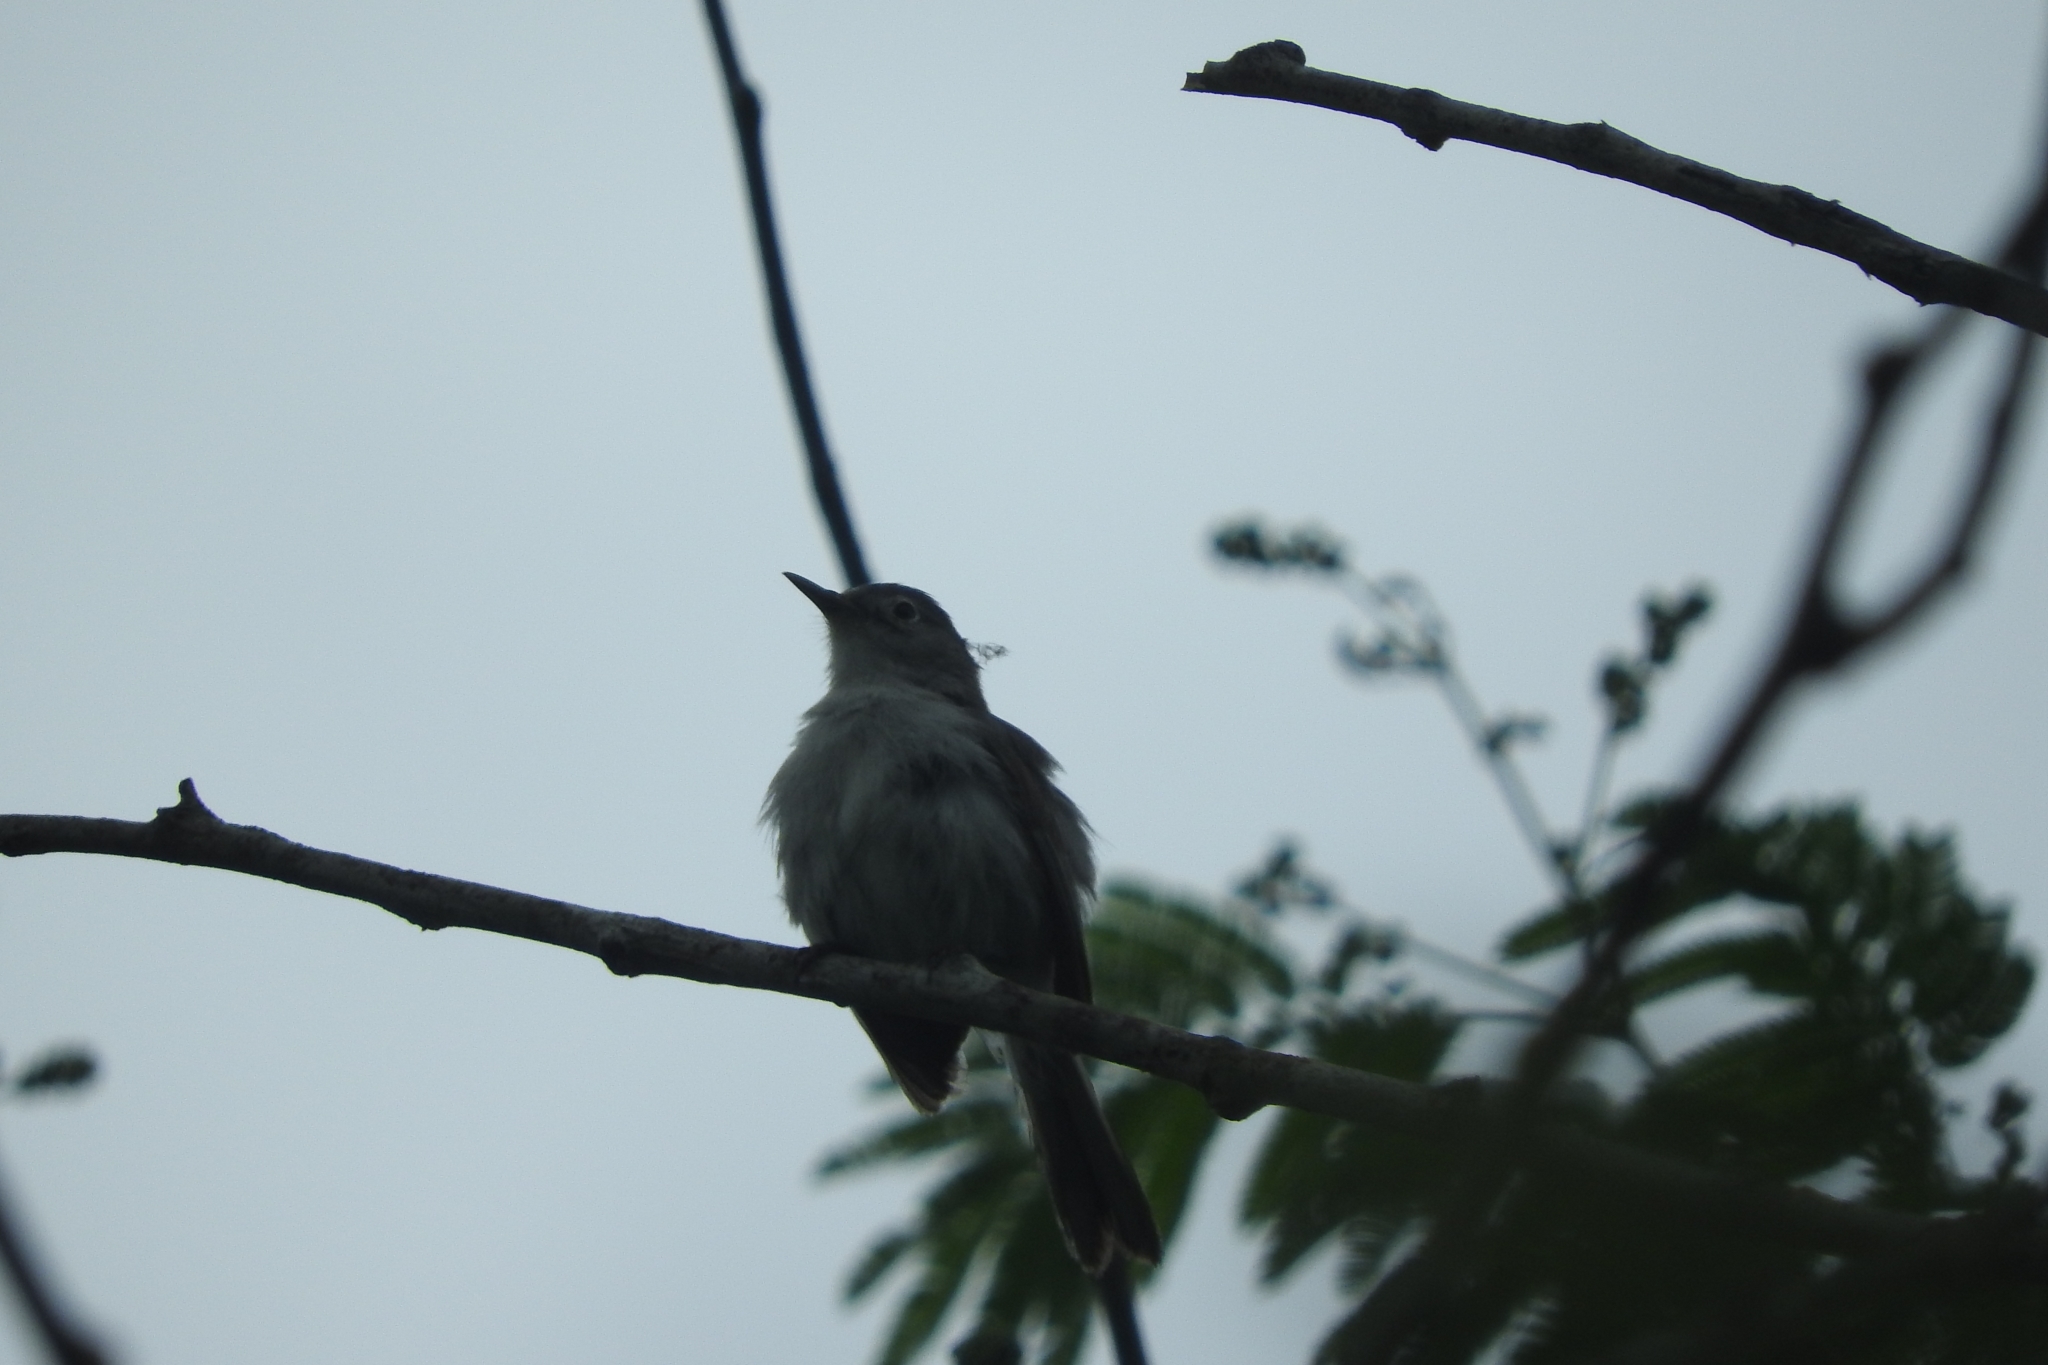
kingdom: Animalia
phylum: Chordata
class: Aves
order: Passeriformes
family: Polioptilidae
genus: Polioptila
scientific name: Polioptila caerulea
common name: Blue-gray gnatcatcher
